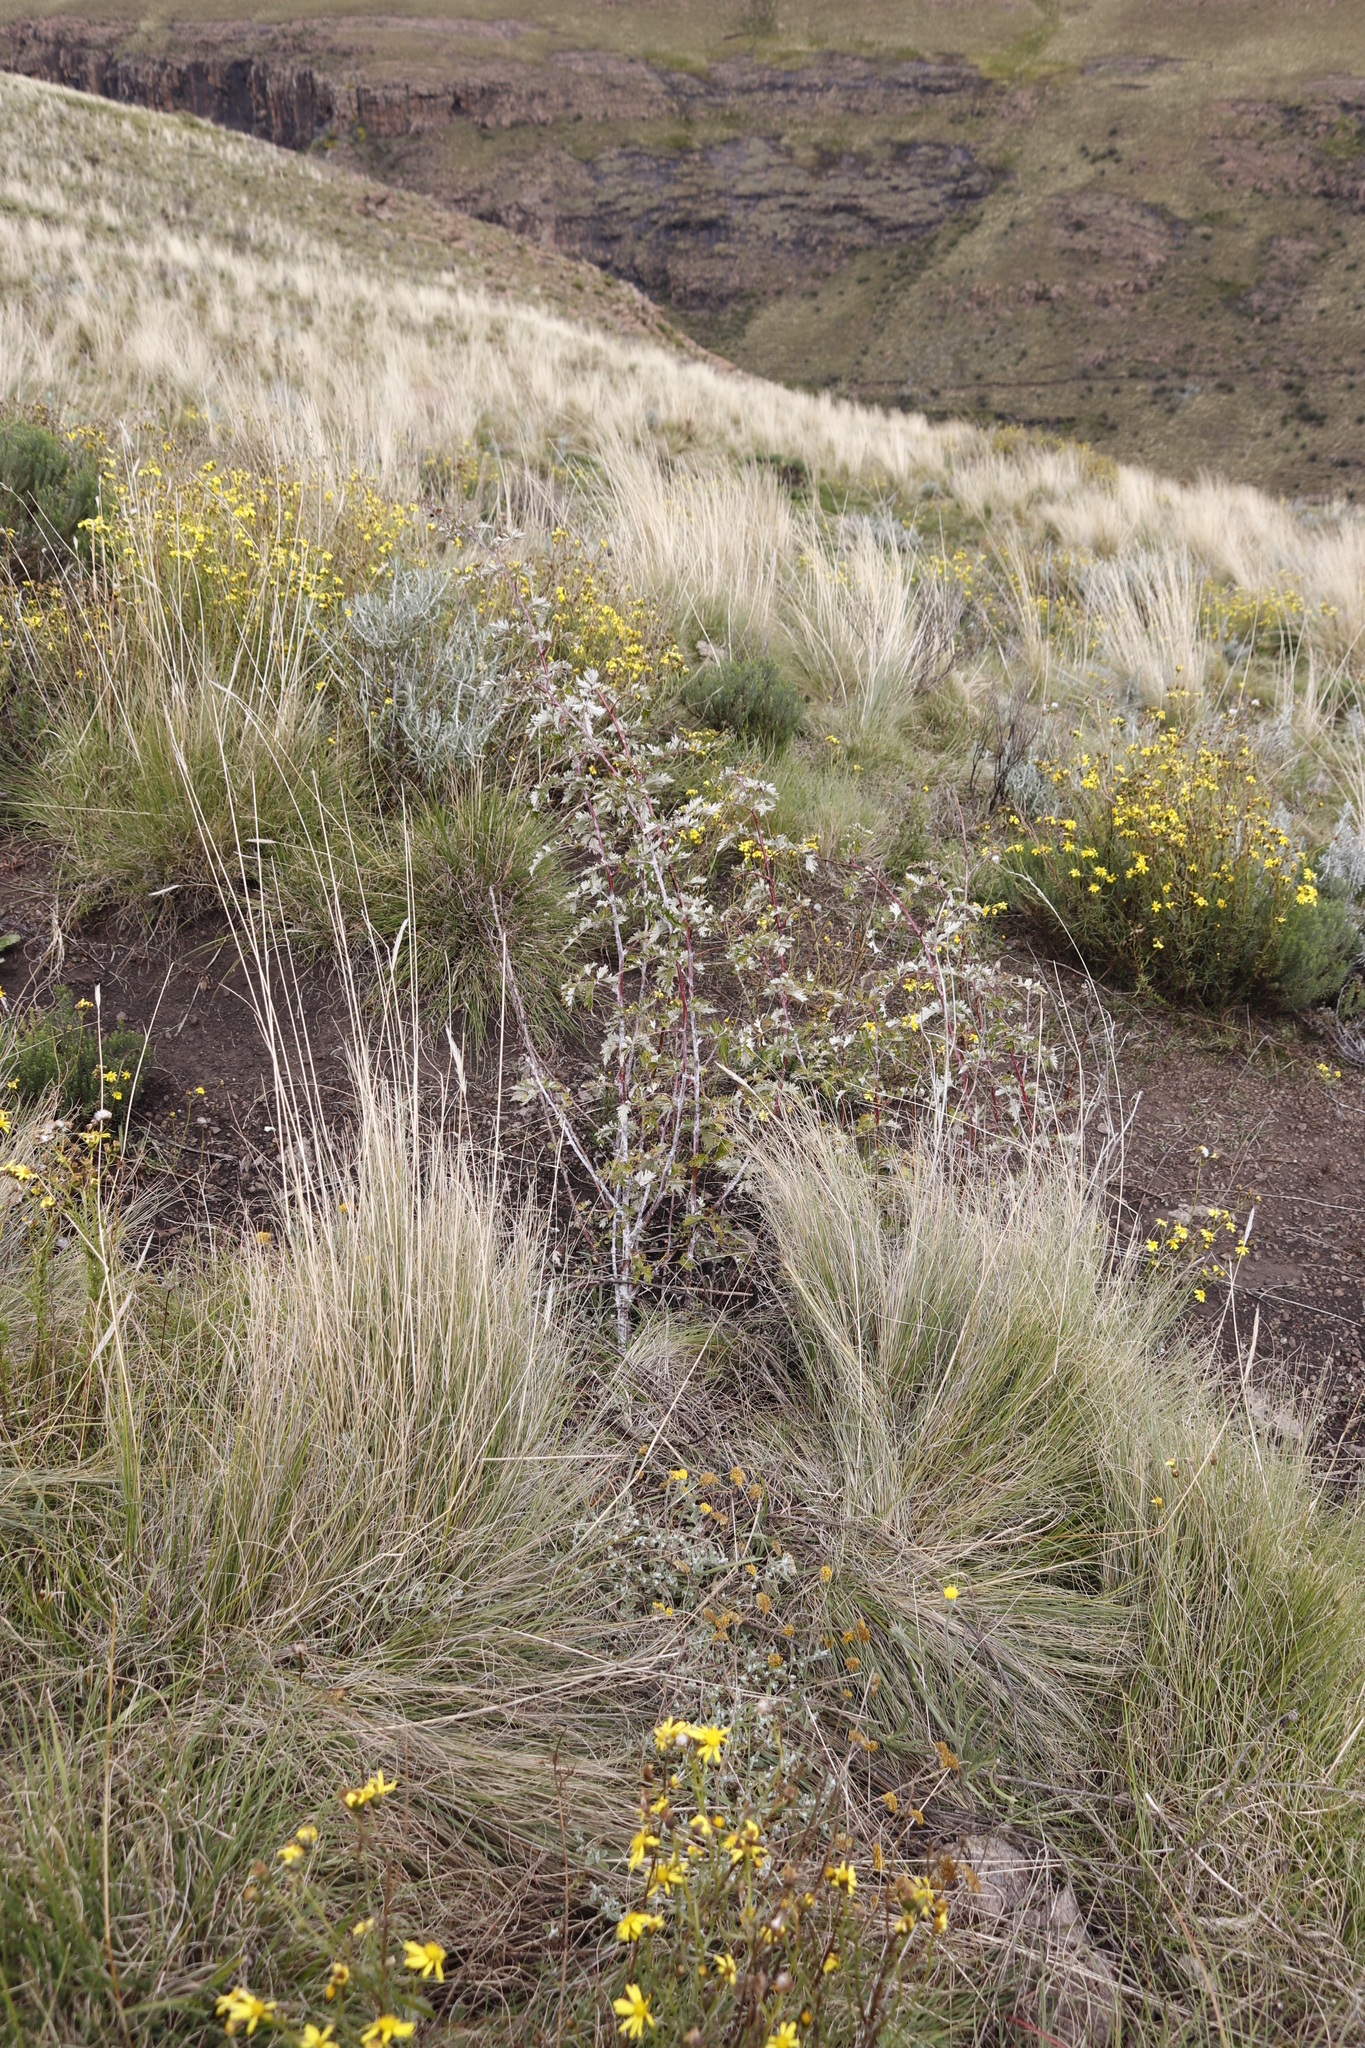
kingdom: Plantae
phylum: Tracheophyta
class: Magnoliopsida
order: Rosales
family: Rosaceae
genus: Rubus
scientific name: Rubus ludwigii
